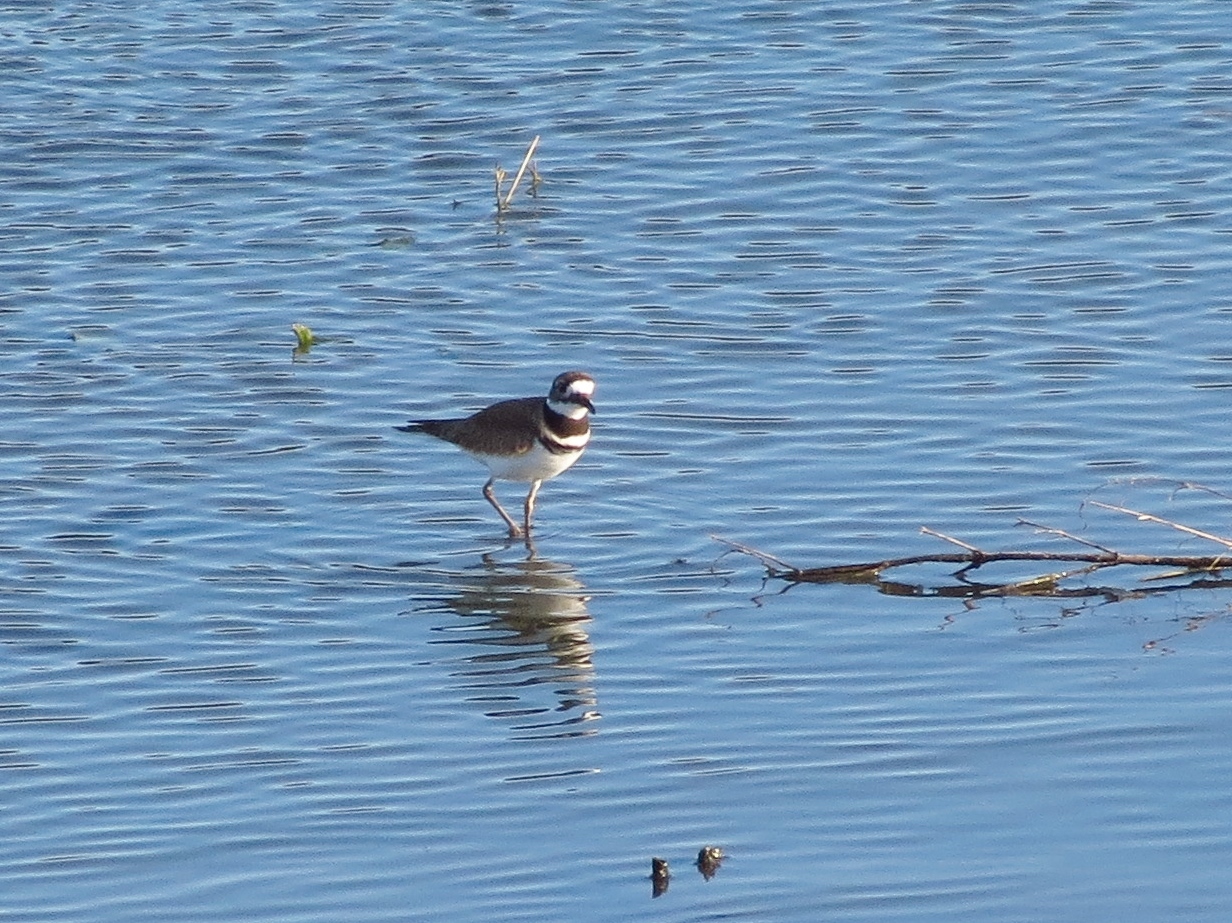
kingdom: Animalia
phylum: Chordata
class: Aves
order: Charadriiformes
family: Charadriidae
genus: Charadrius
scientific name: Charadrius vociferus
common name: Killdeer
